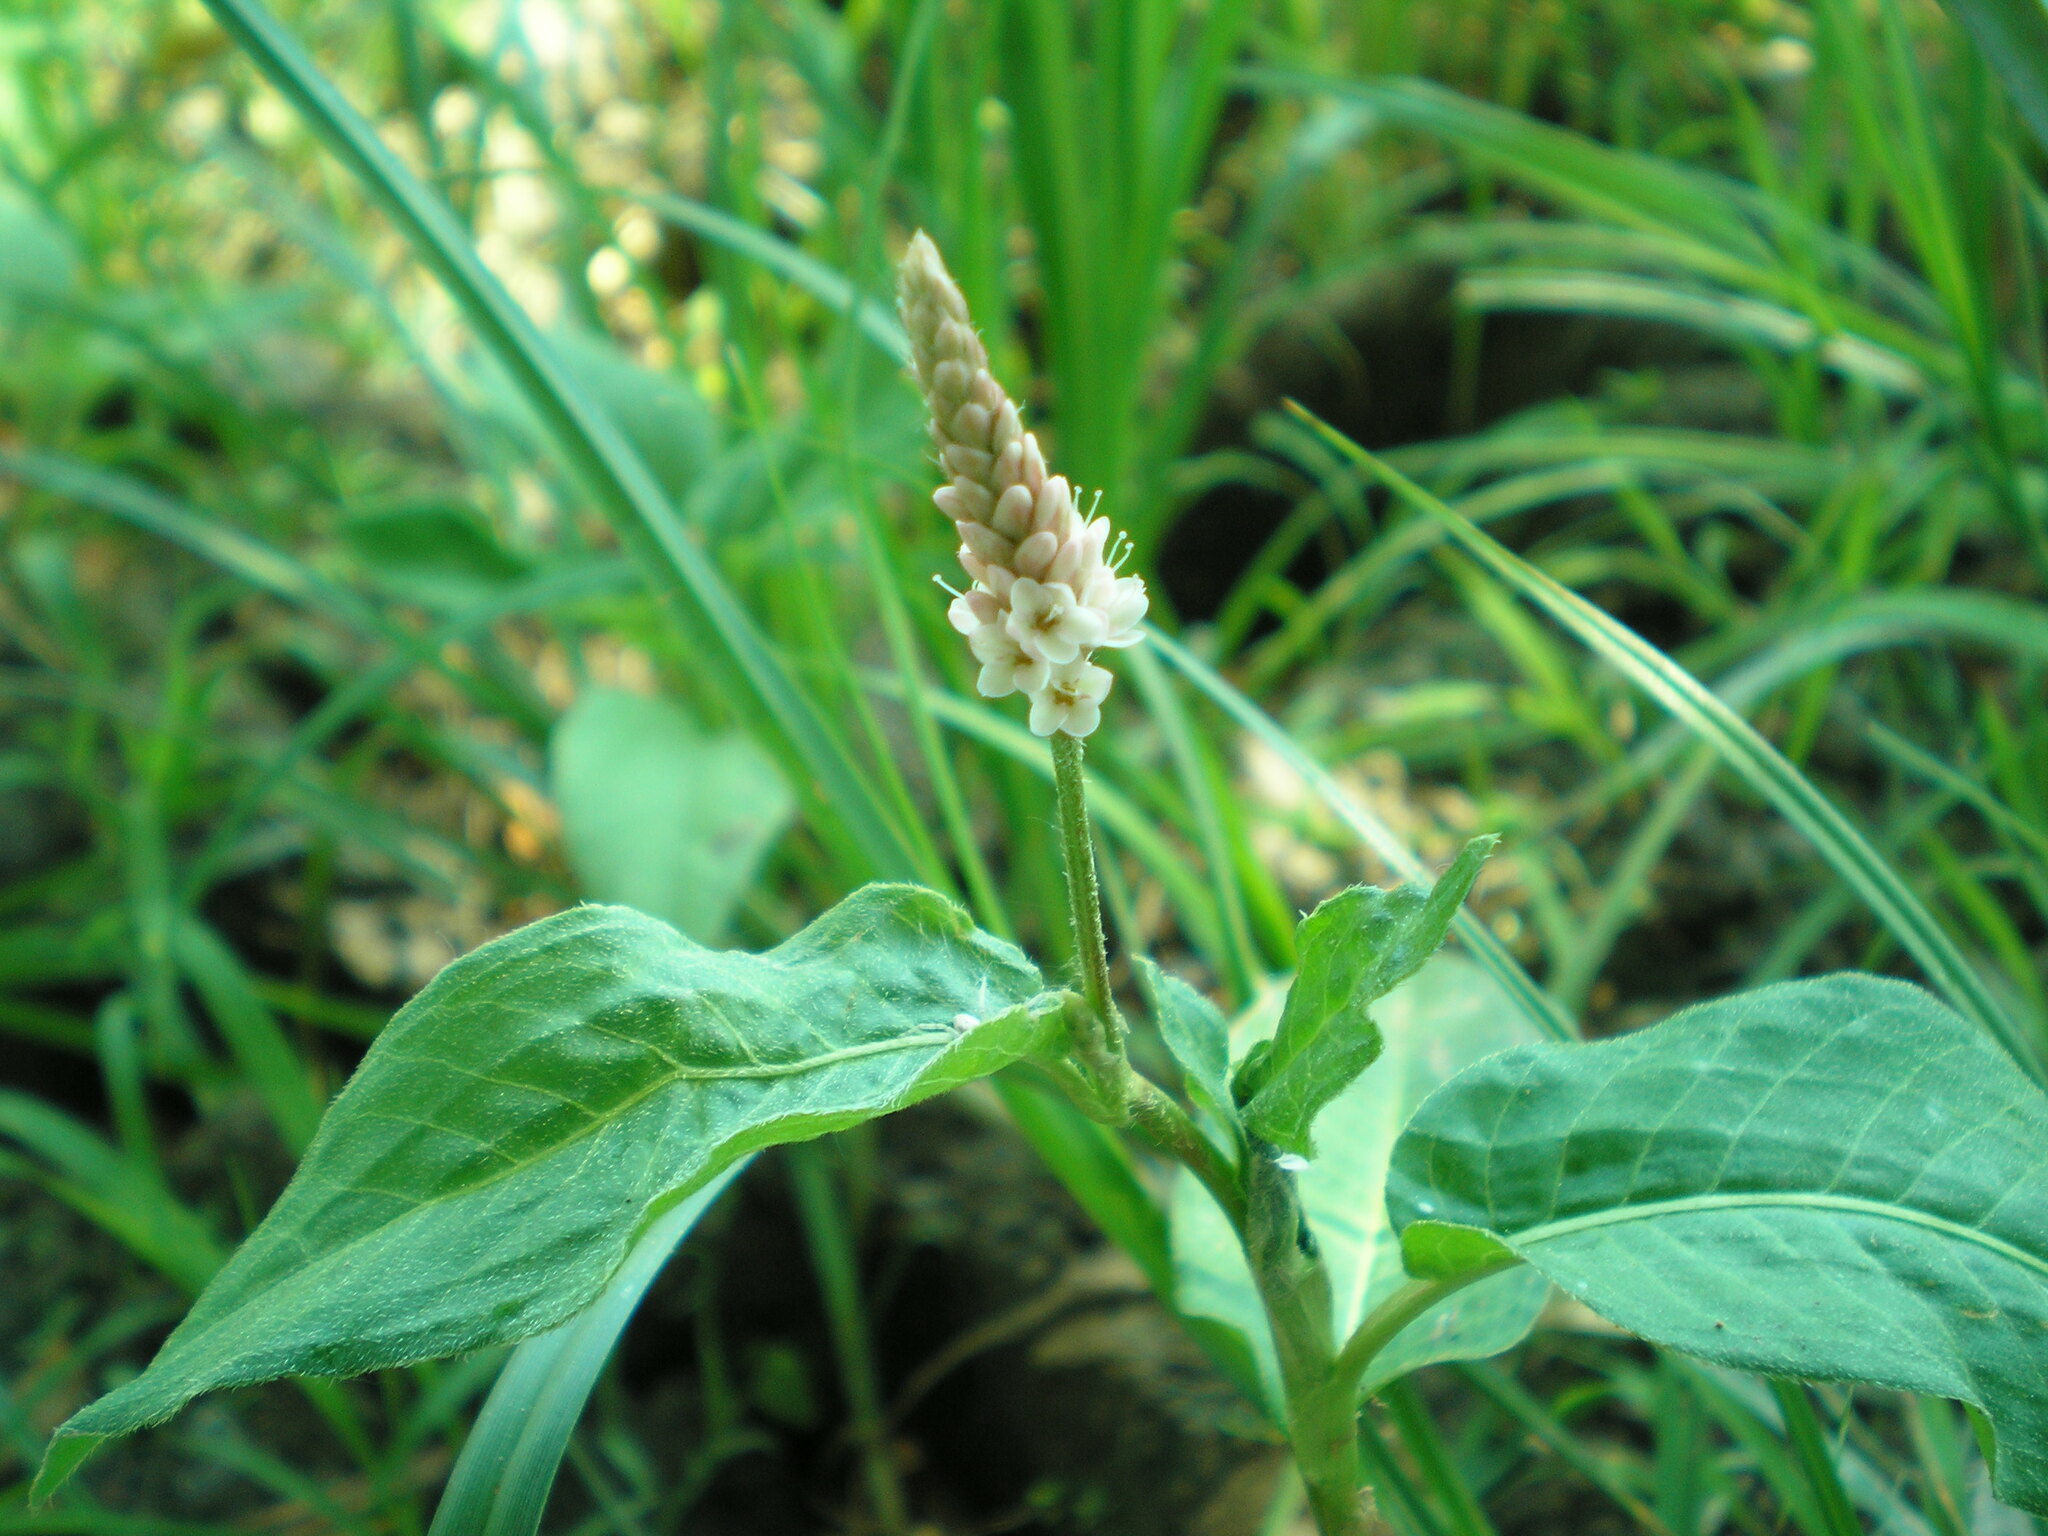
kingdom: Plantae
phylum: Tracheophyta
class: Magnoliopsida
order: Caryophyllales
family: Polygonaceae
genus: Persicaria
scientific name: Persicaria amphibia
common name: Amphibious bistort
